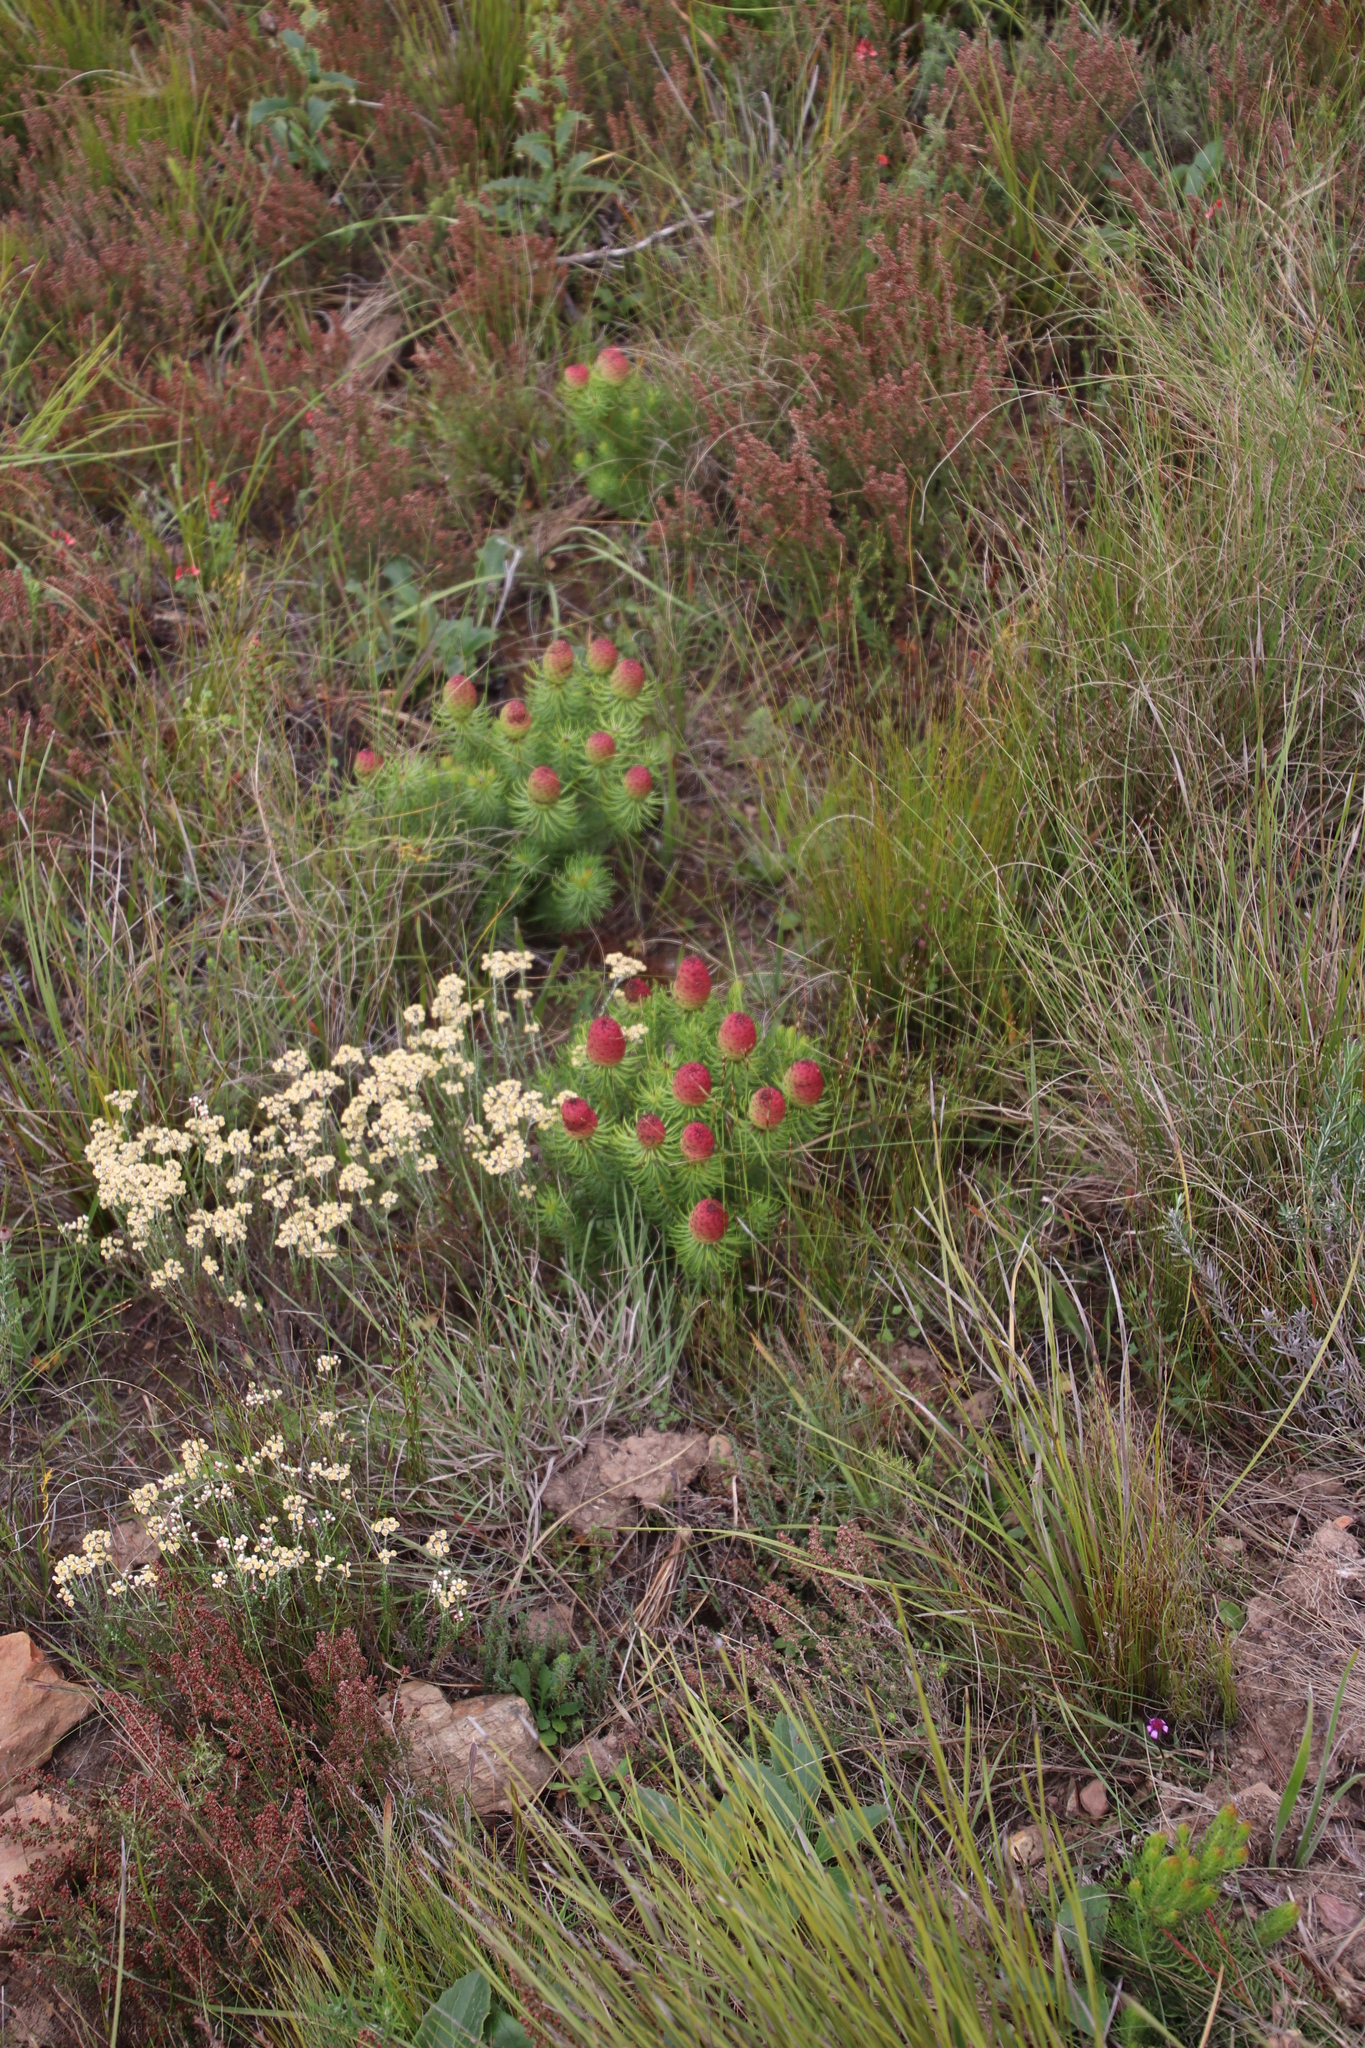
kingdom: Plantae
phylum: Tracheophyta
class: Magnoliopsida
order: Proteales
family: Proteaceae
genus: Leucadendron
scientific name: Leucadendron teretifolium
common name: Needle-leaf conebush
